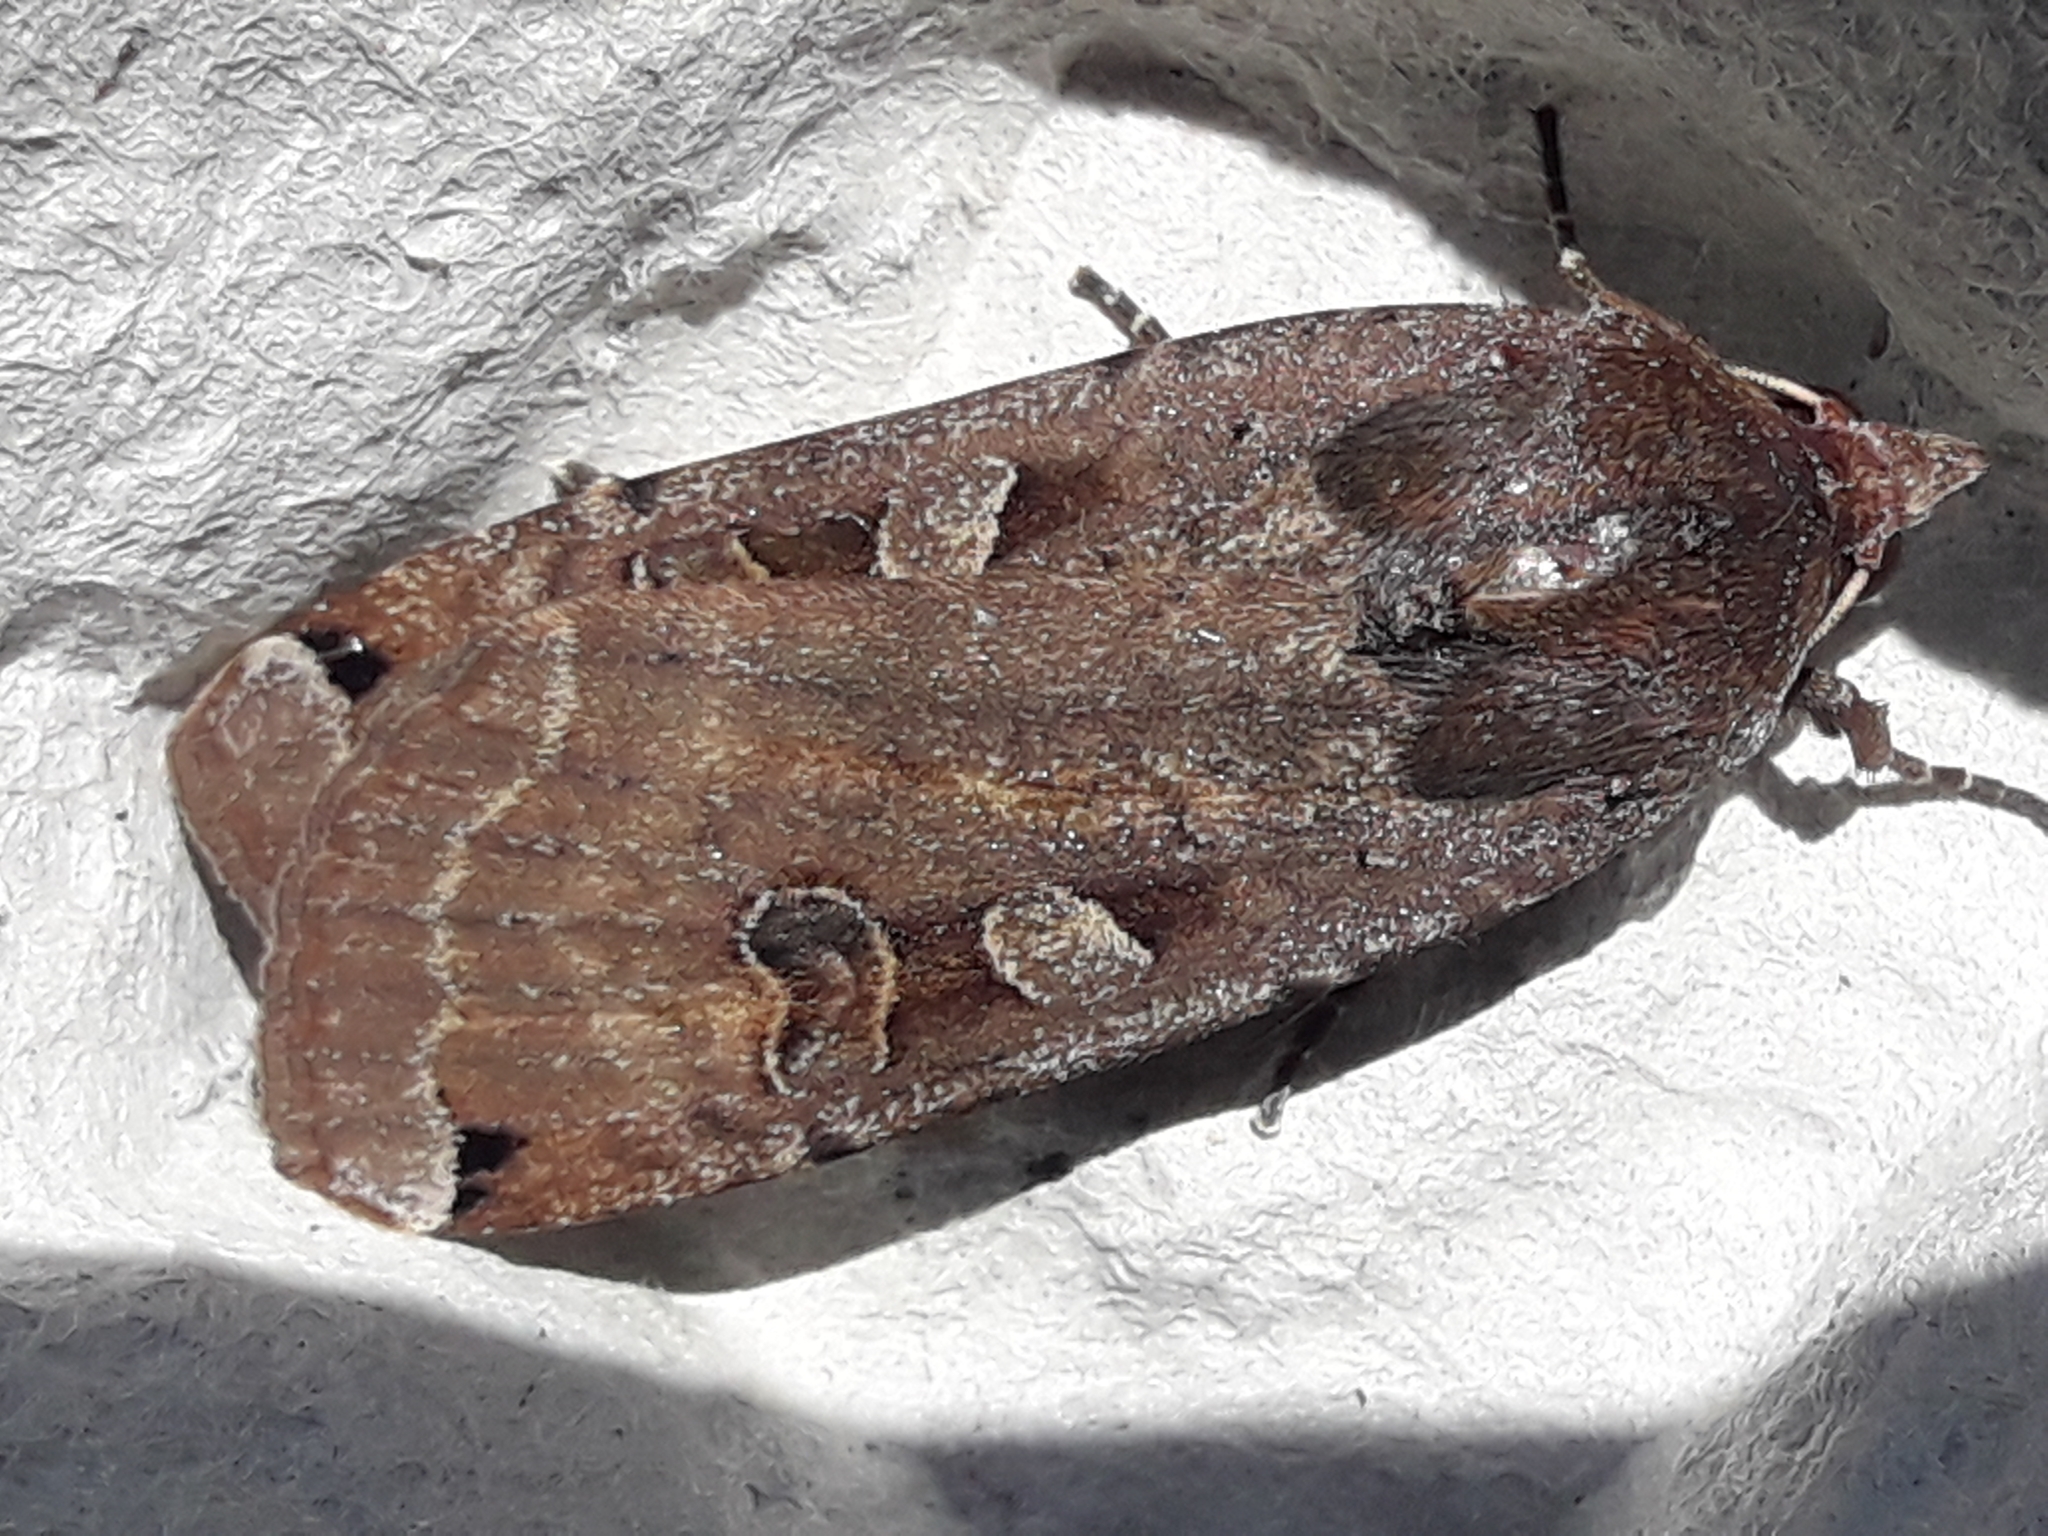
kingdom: Animalia
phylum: Arthropoda
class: Insecta
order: Lepidoptera
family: Noctuidae
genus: Noctua
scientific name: Noctua pronuba
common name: Large yellow underwing
